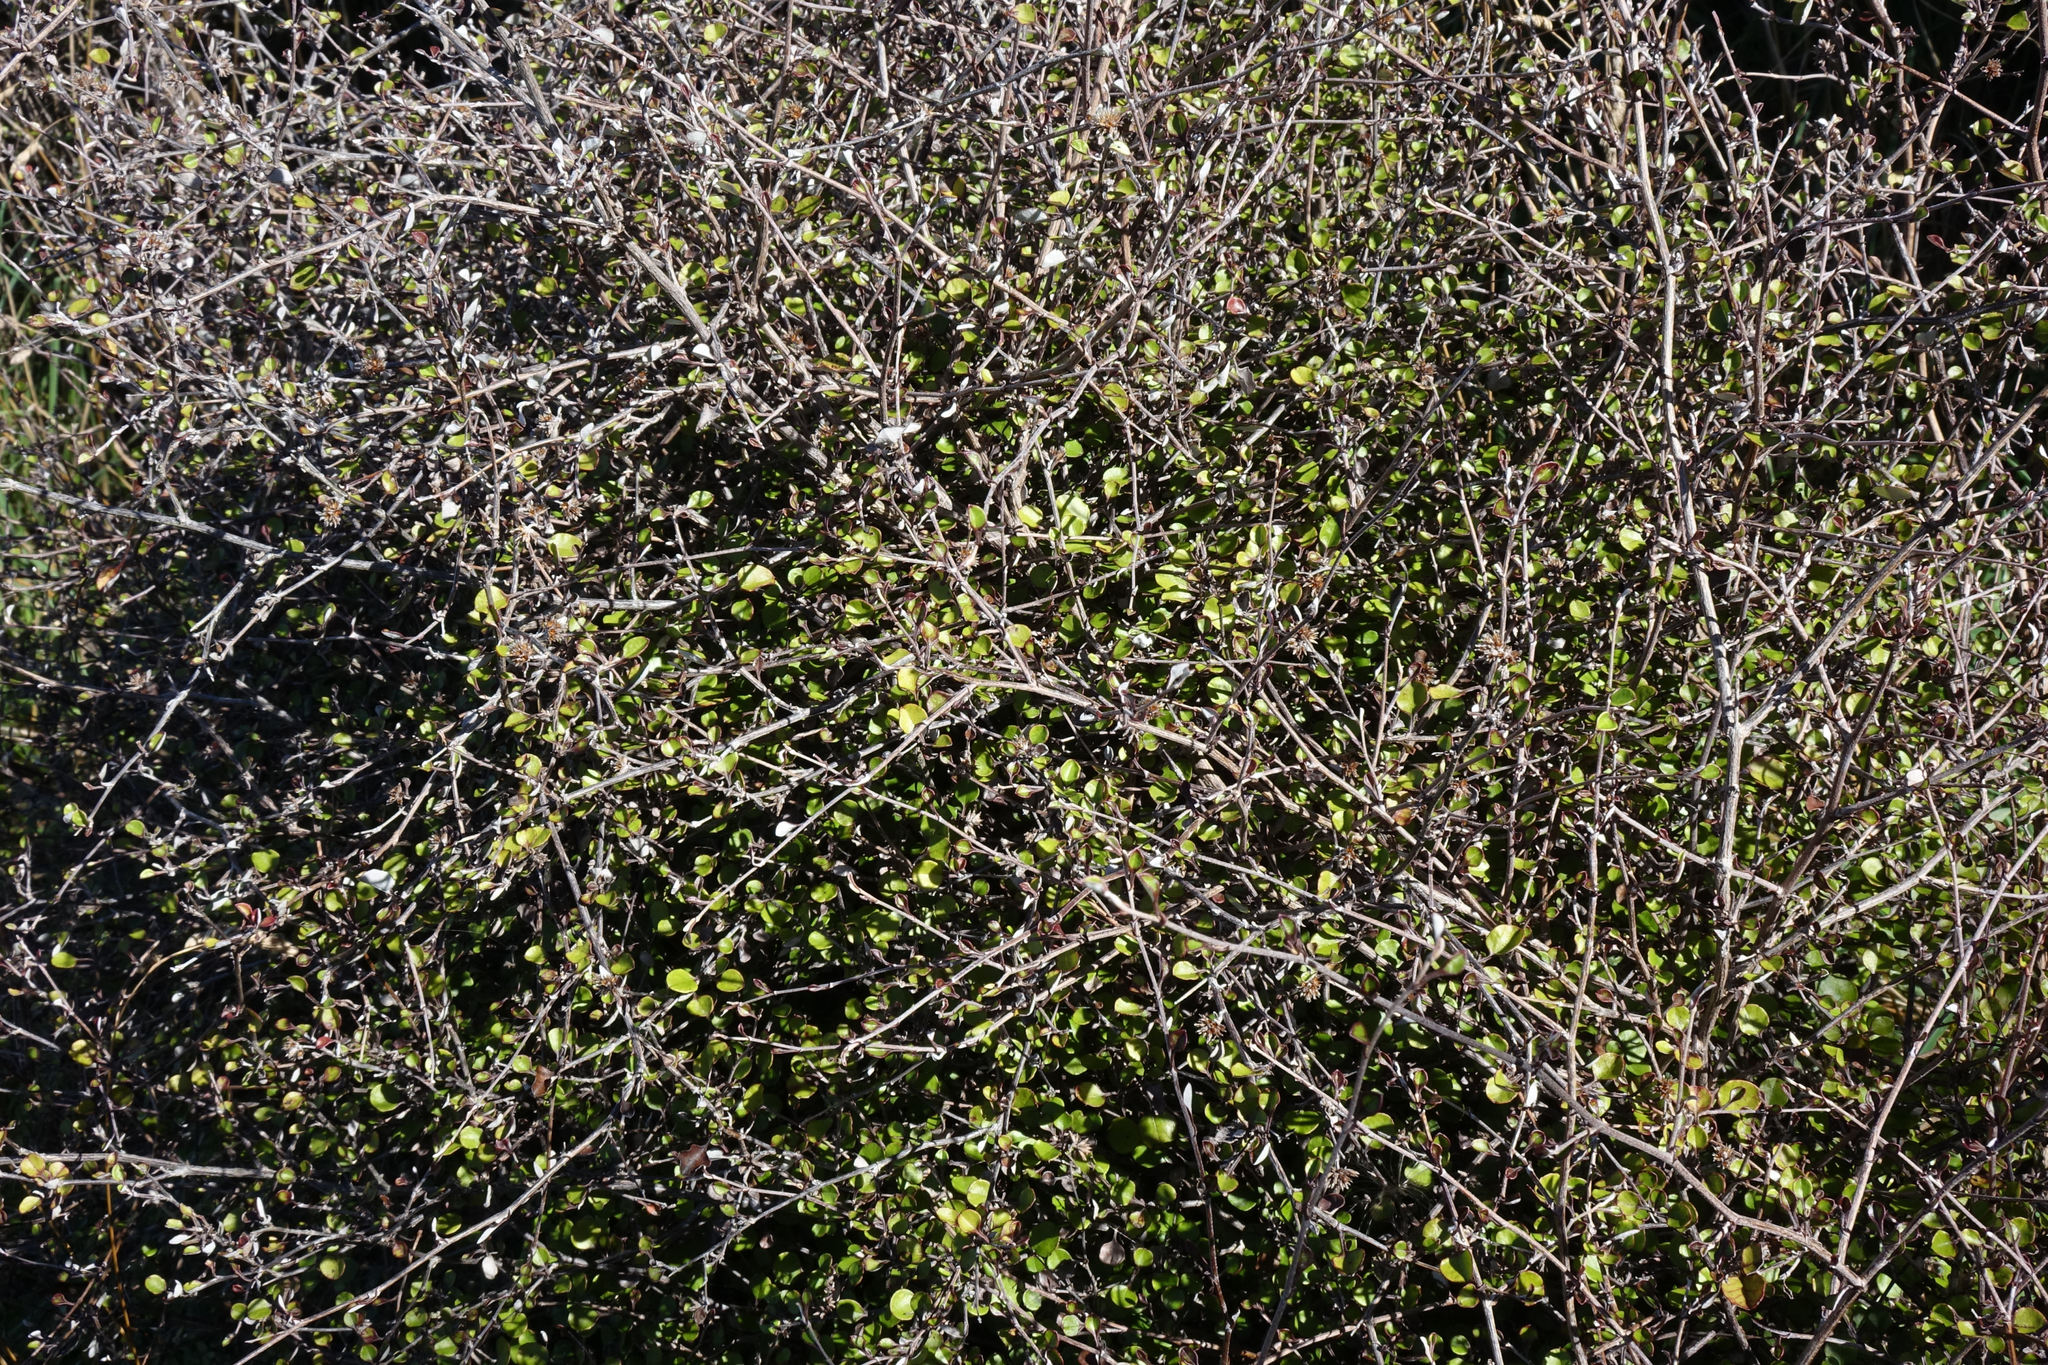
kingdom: Plantae
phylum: Tracheophyta
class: Magnoliopsida
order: Asterales
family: Asteraceae
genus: Ozothamnus
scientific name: Ozothamnus glomeratus
